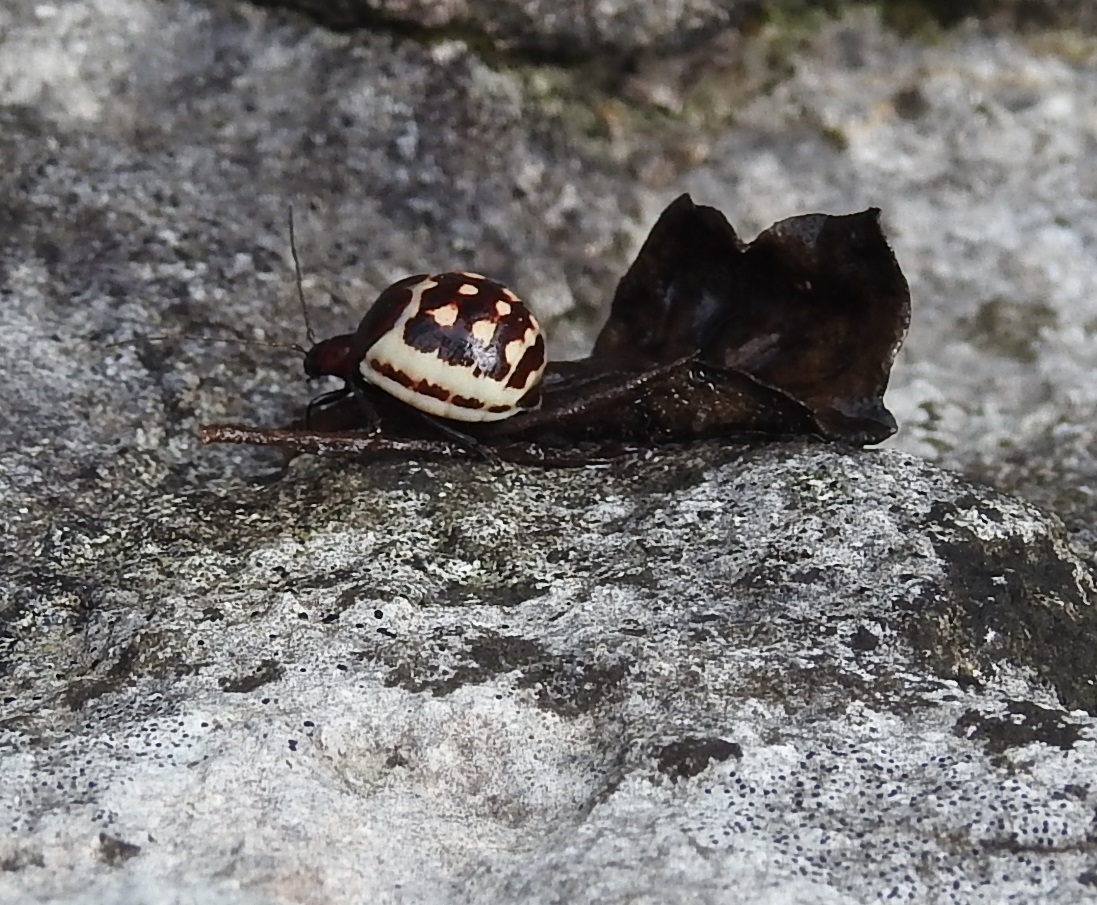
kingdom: Animalia
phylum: Arthropoda
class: Insecta
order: Coleoptera
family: Chrysomelidae
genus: Metacycla
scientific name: Metacycla
